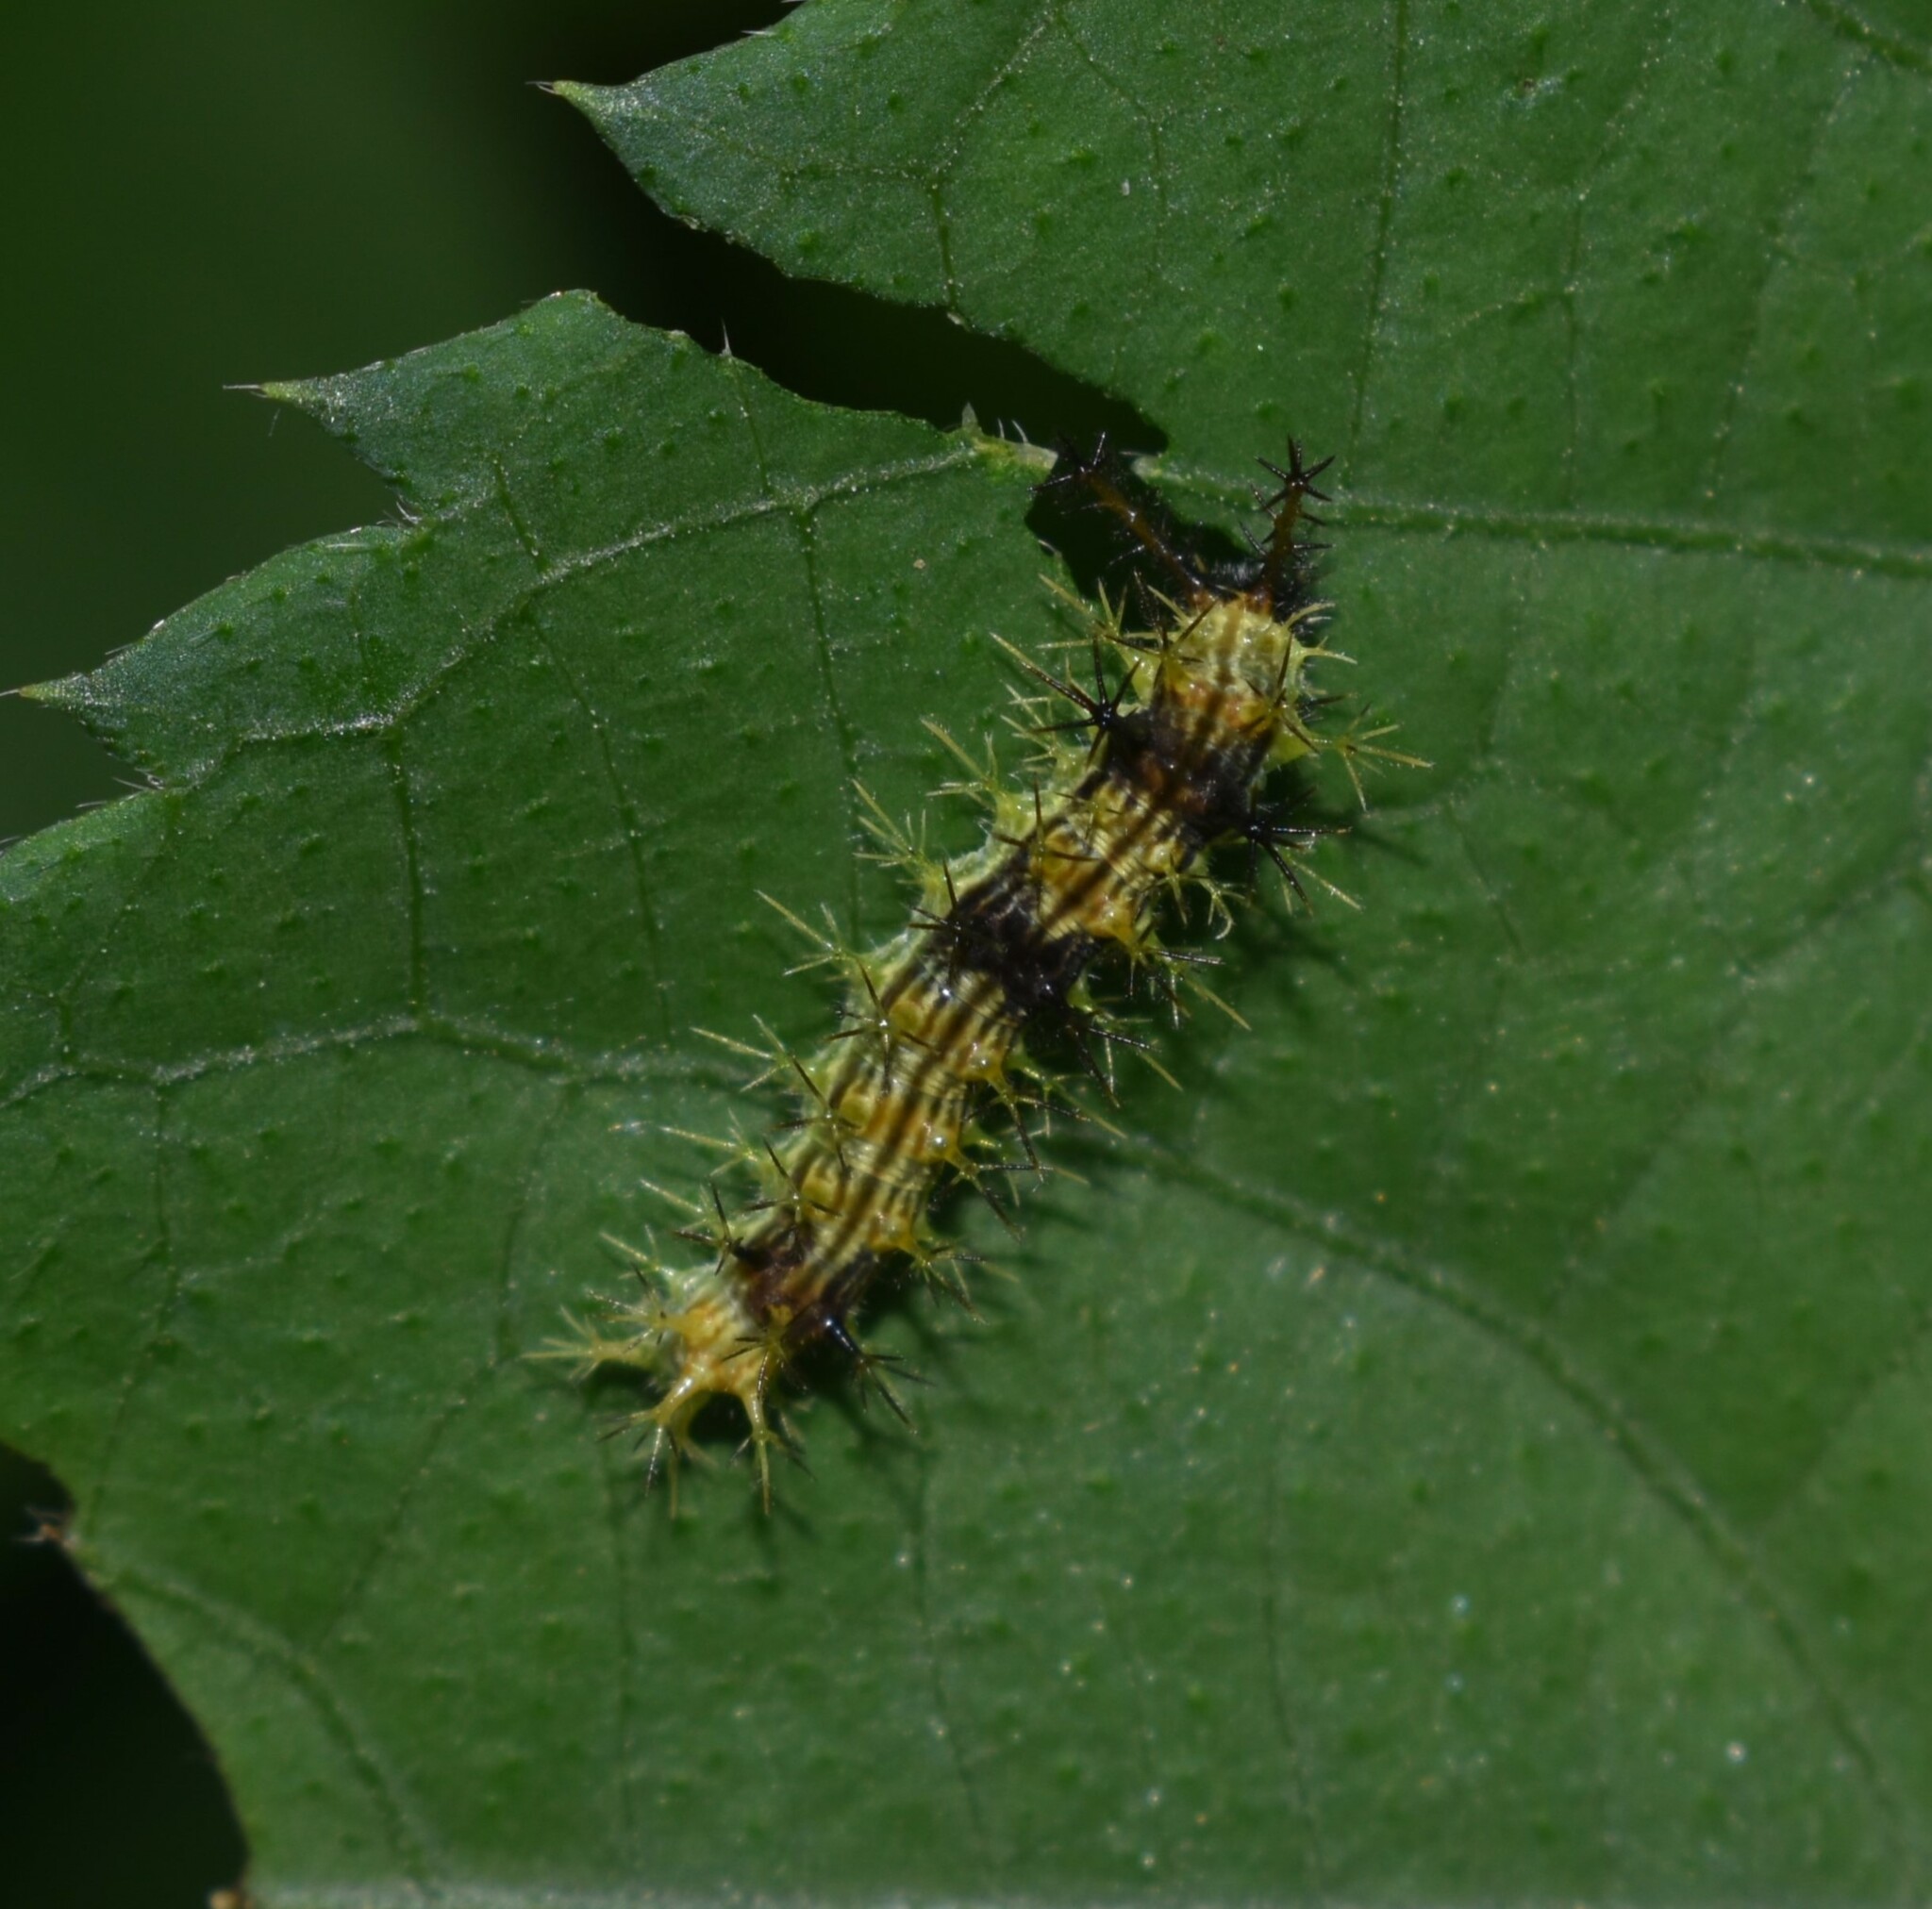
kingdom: Animalia
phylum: Arthropoda
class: Insecta
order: Lepidoptera
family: Nymphalidae
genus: Ariadne
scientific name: Ariadne merione
